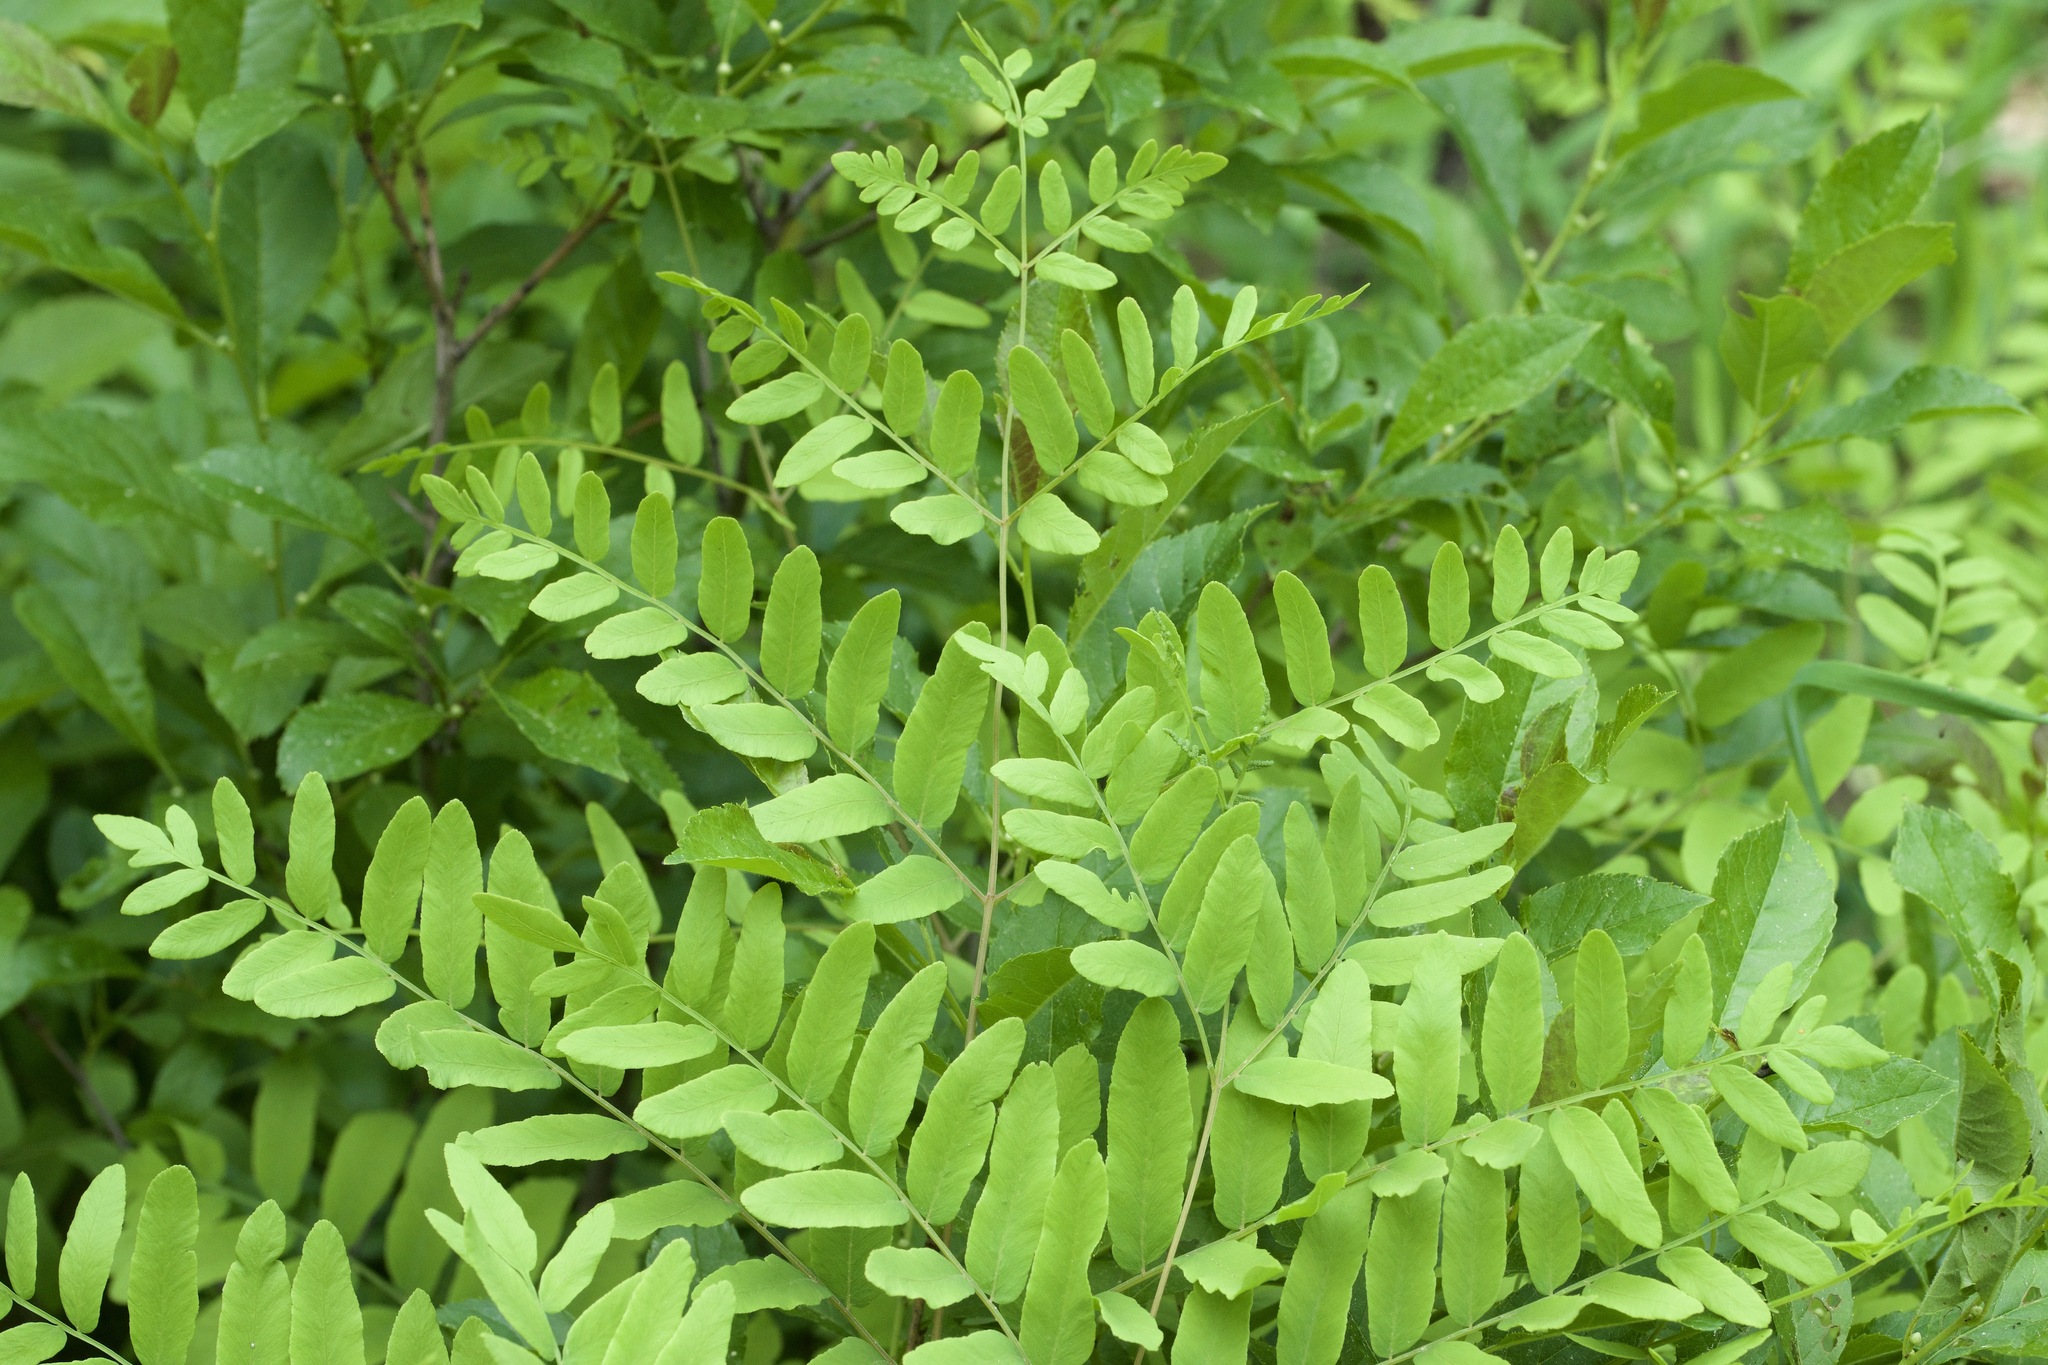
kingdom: Plantae
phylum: Tracheophyta
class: Polypodiopsida
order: Osmundales
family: Osmundaceae
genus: Osmunda
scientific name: Osmunda spectabilis
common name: American royal fern
